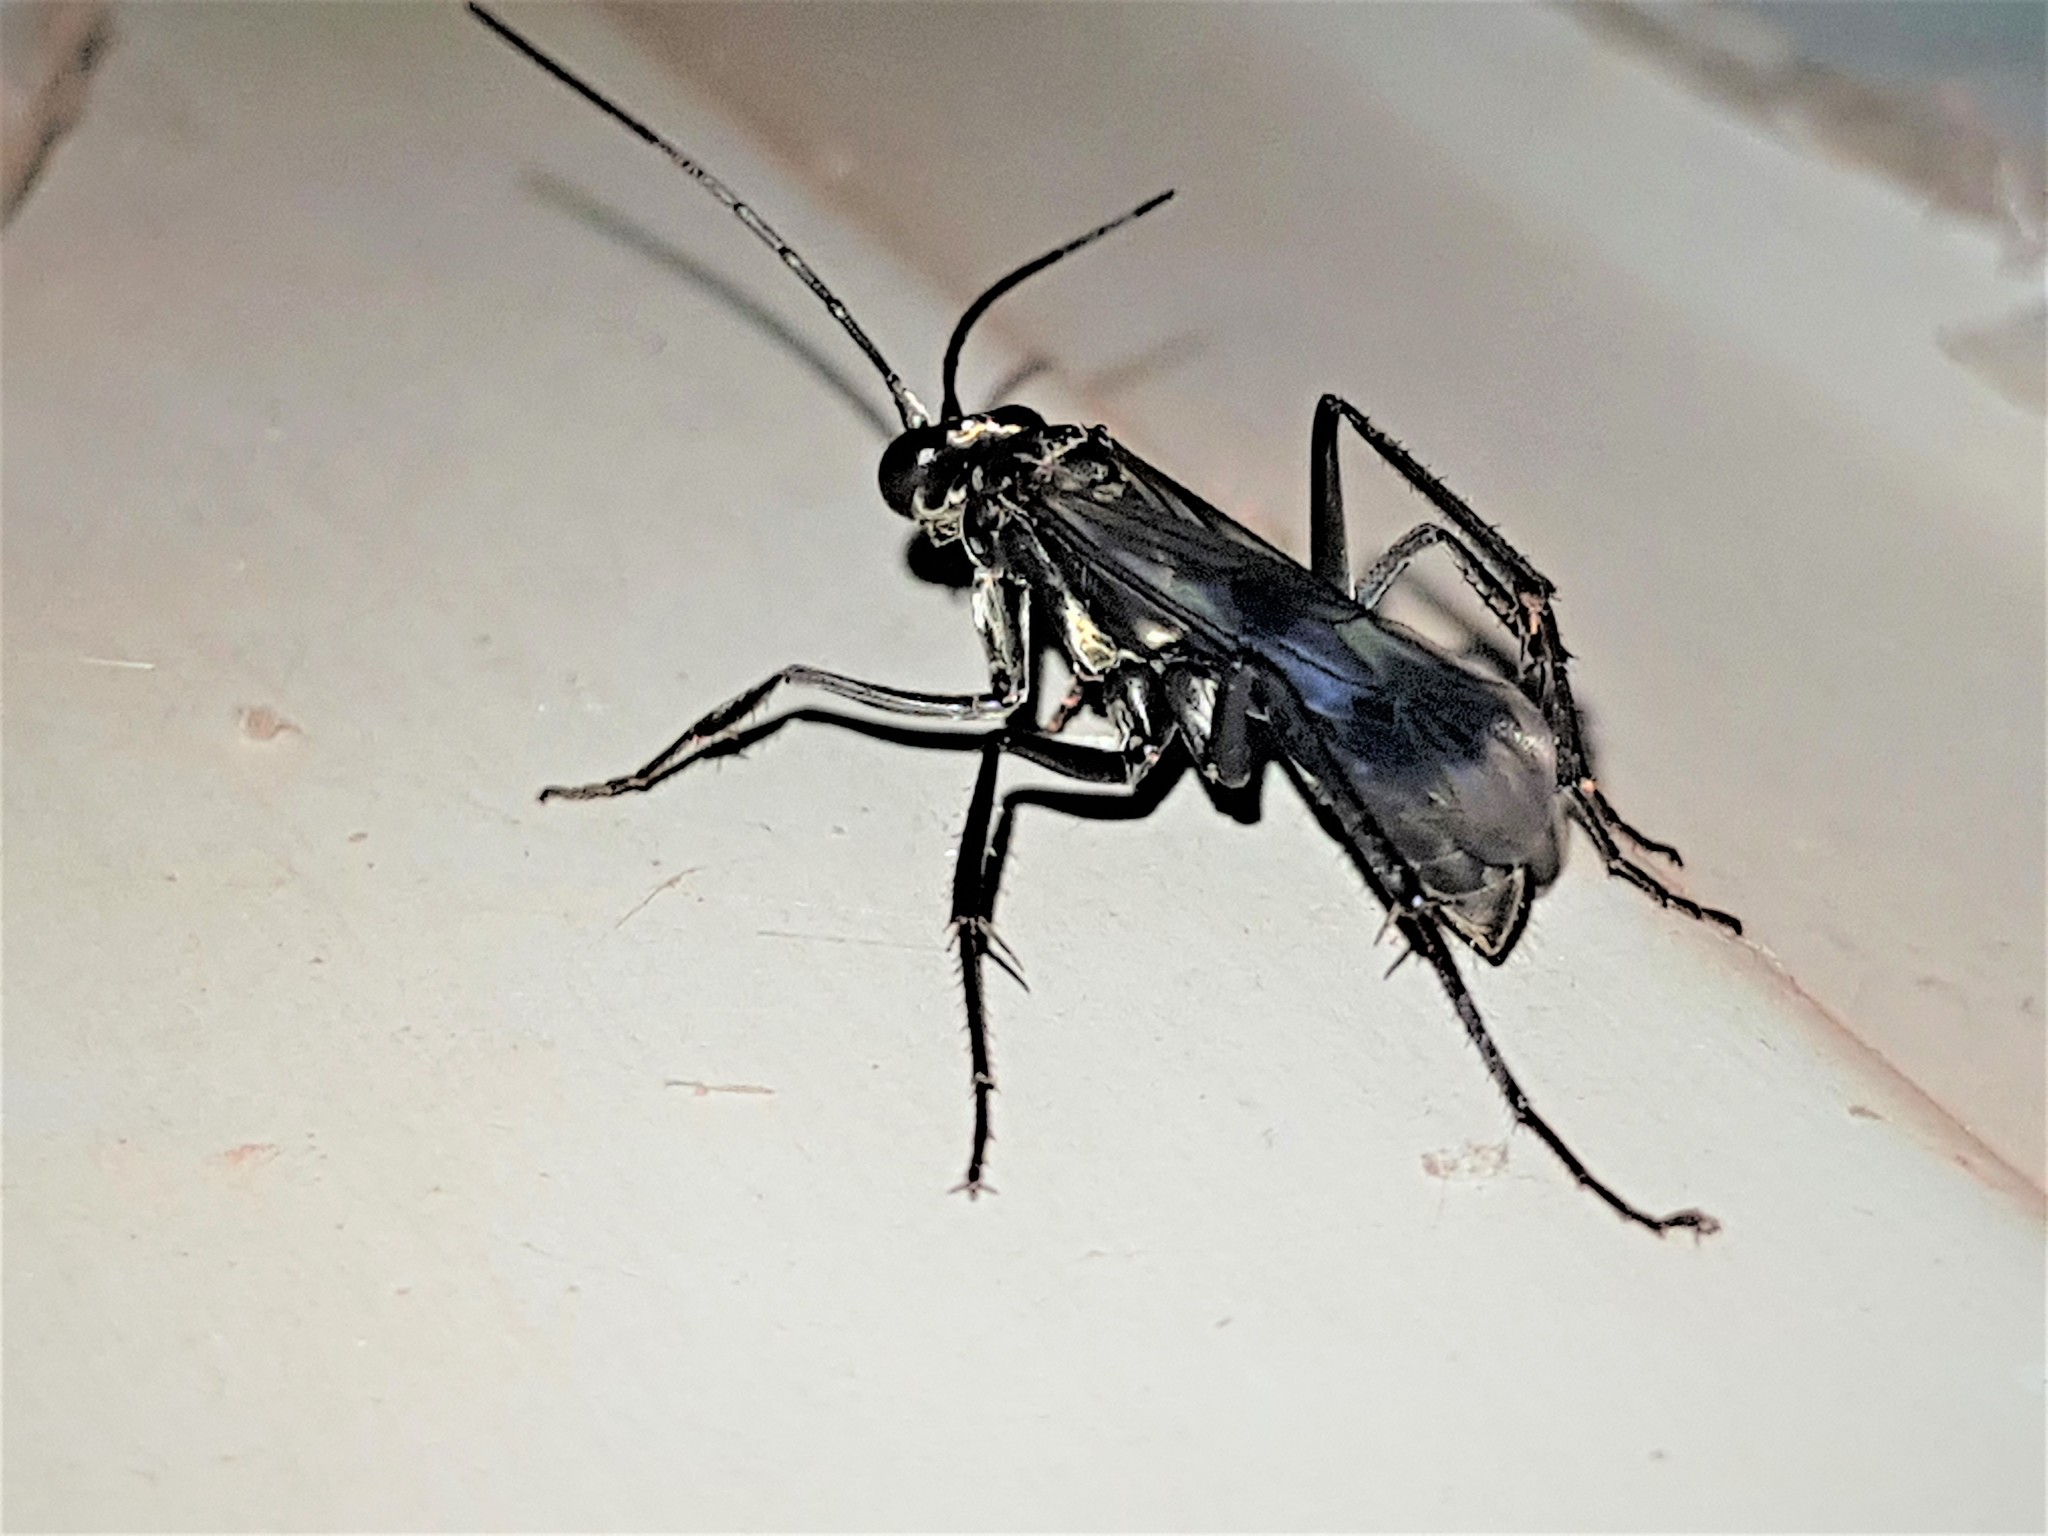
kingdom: Animalia
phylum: Arthropoda
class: Insecta
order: Hymenoptera
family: Pompilidae
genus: Anoplius
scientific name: Anoplius depressipes
